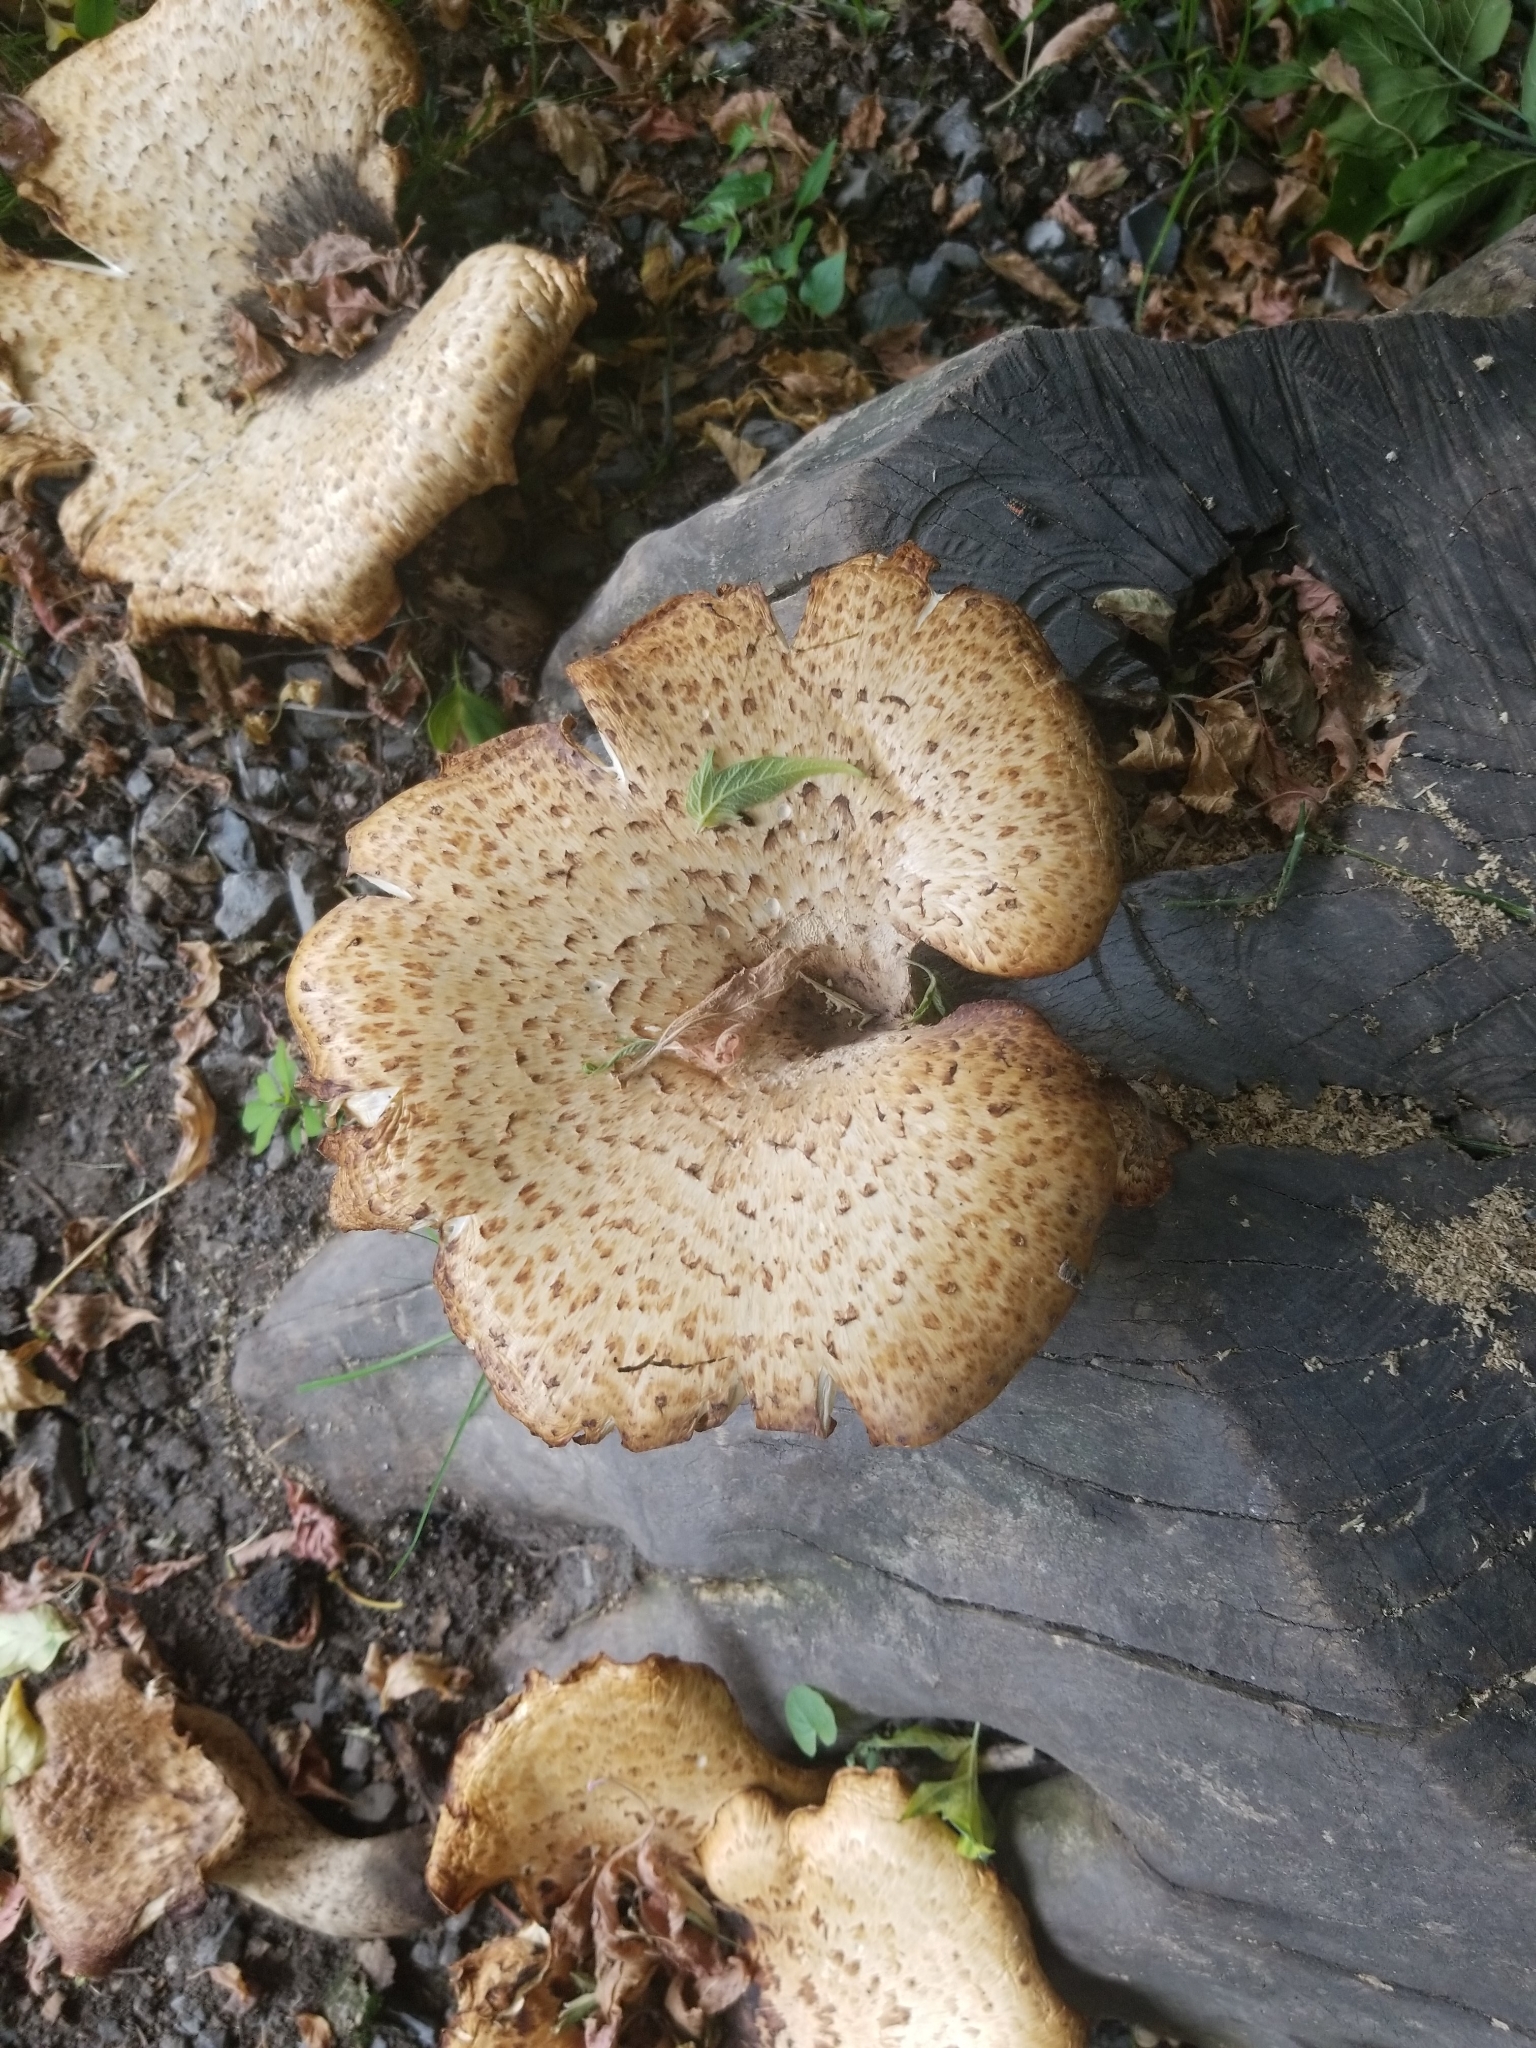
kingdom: Fungi
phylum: Basidiomycota
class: Agaricomycetes
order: Polyporales
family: Polyporaceae
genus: Cerioporus
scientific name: Cerioporus squamosus
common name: Dryad's saddle
